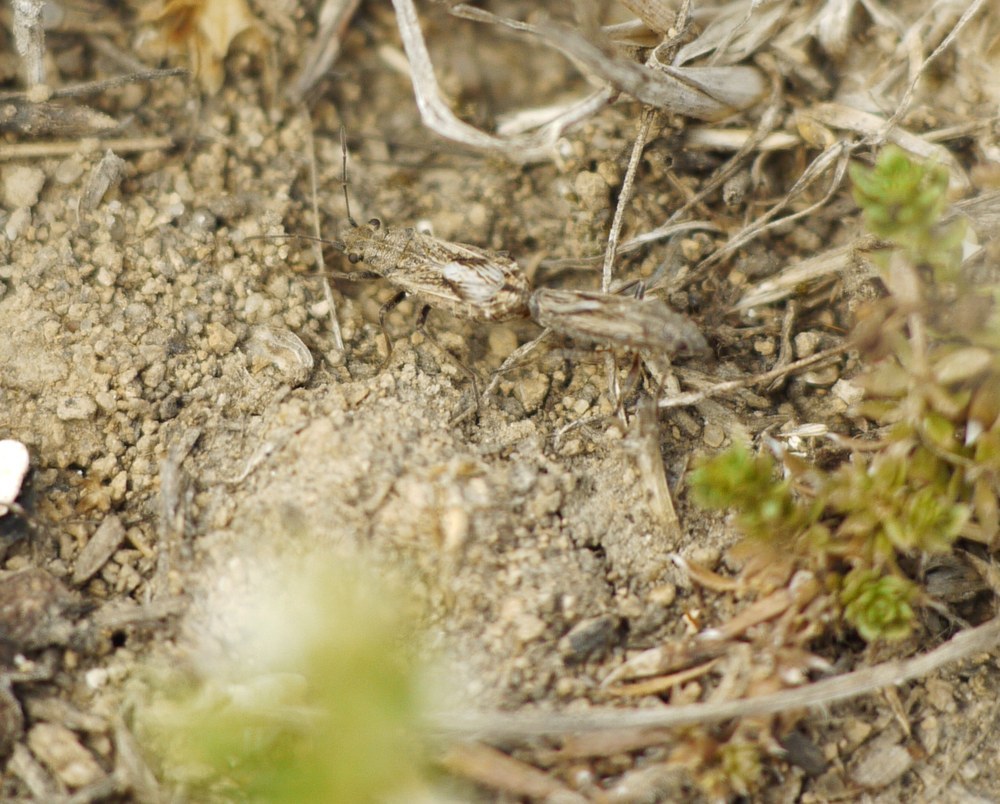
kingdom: Animalia
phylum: Arthropoda
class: Insecta
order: Hemiptera
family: Lygaeidae
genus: Ortholomus
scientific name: Ortholomus punctipennis
